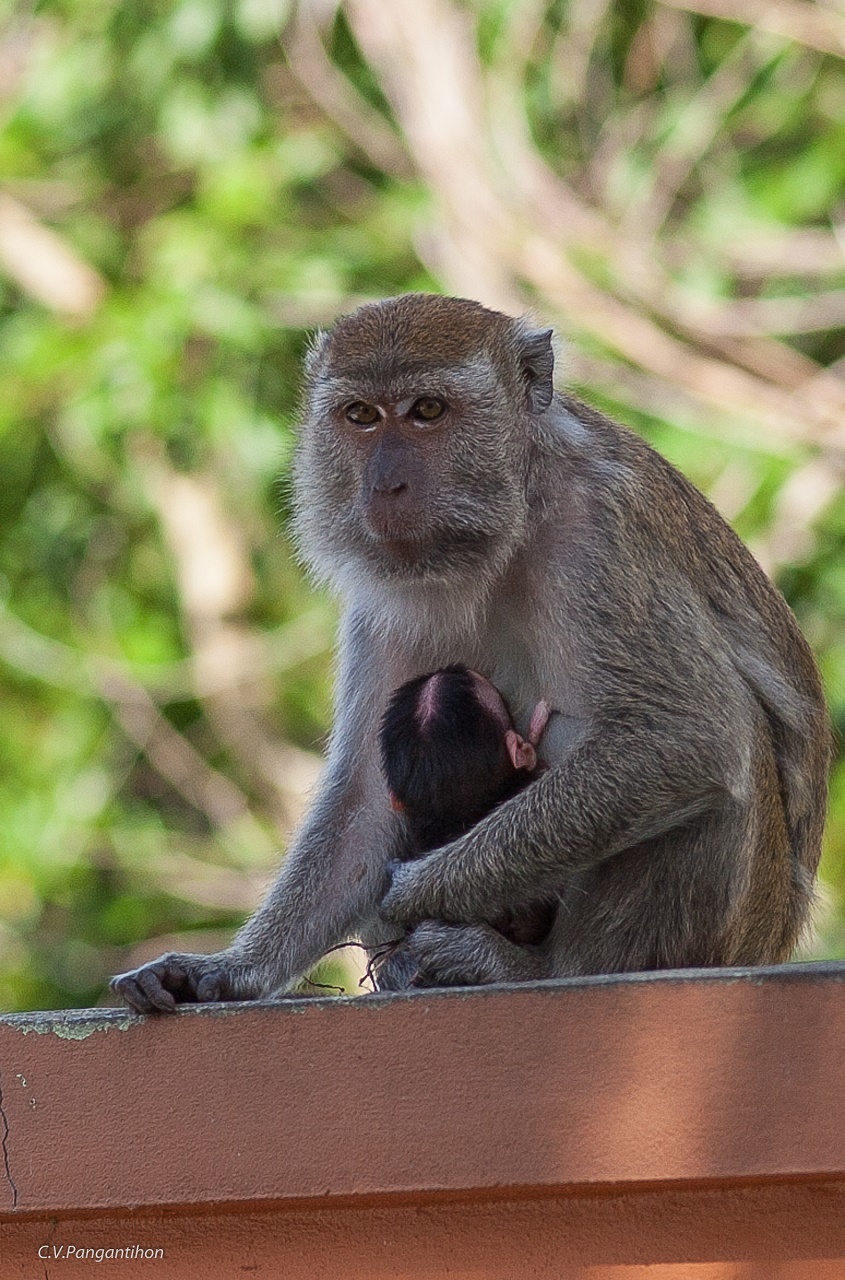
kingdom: Animalia
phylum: Chordata
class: Mammalia
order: Primates
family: Cercopithecidae
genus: Macaca
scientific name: Macaca fascicularis
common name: Crab-eating macaque
